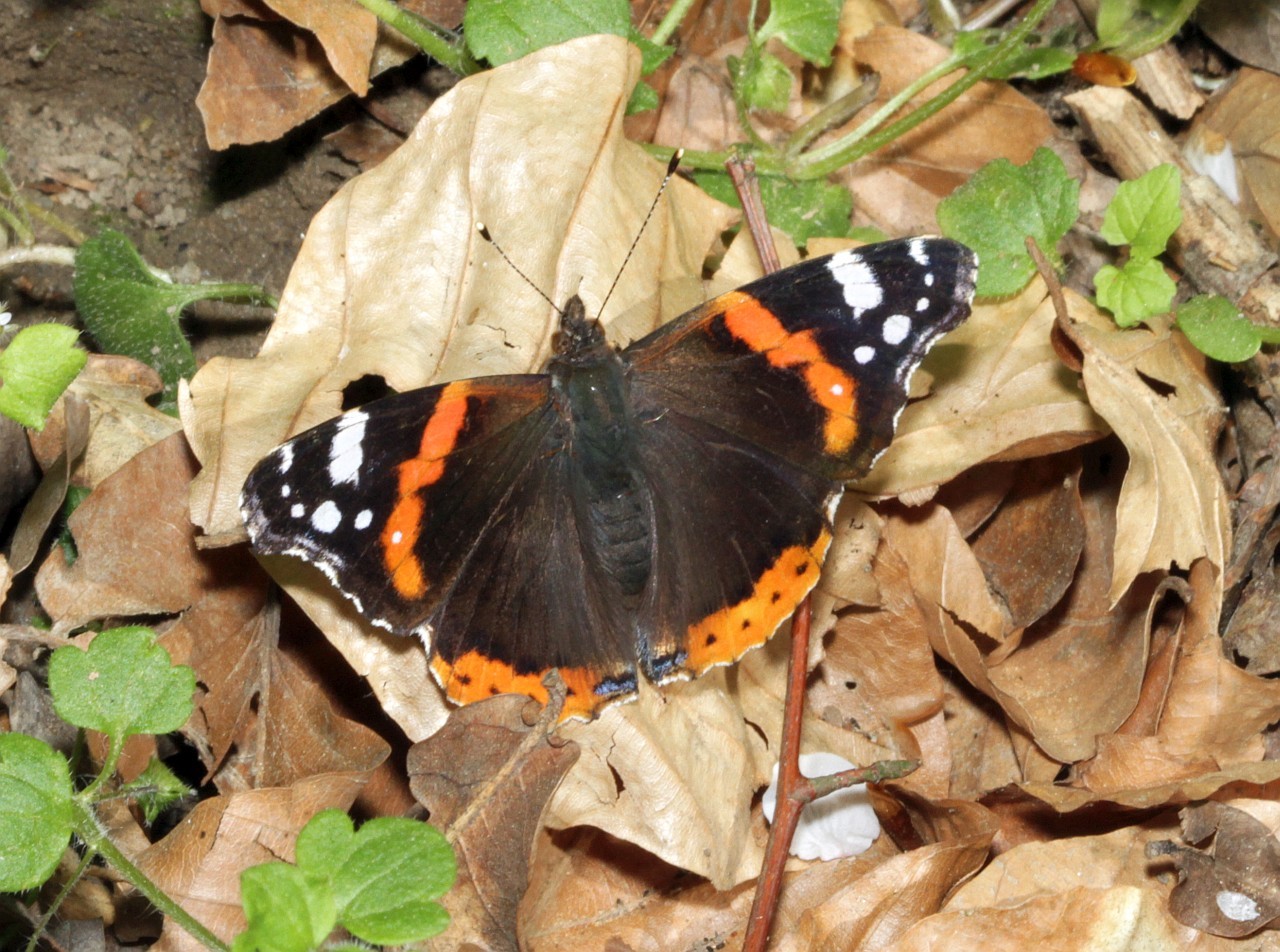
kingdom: Animalia
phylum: Arthropoda
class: Insecta
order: Lepidoptera
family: Nymphalidae
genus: Vanessa
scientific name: Vanessa atalanta
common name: Red admiral
